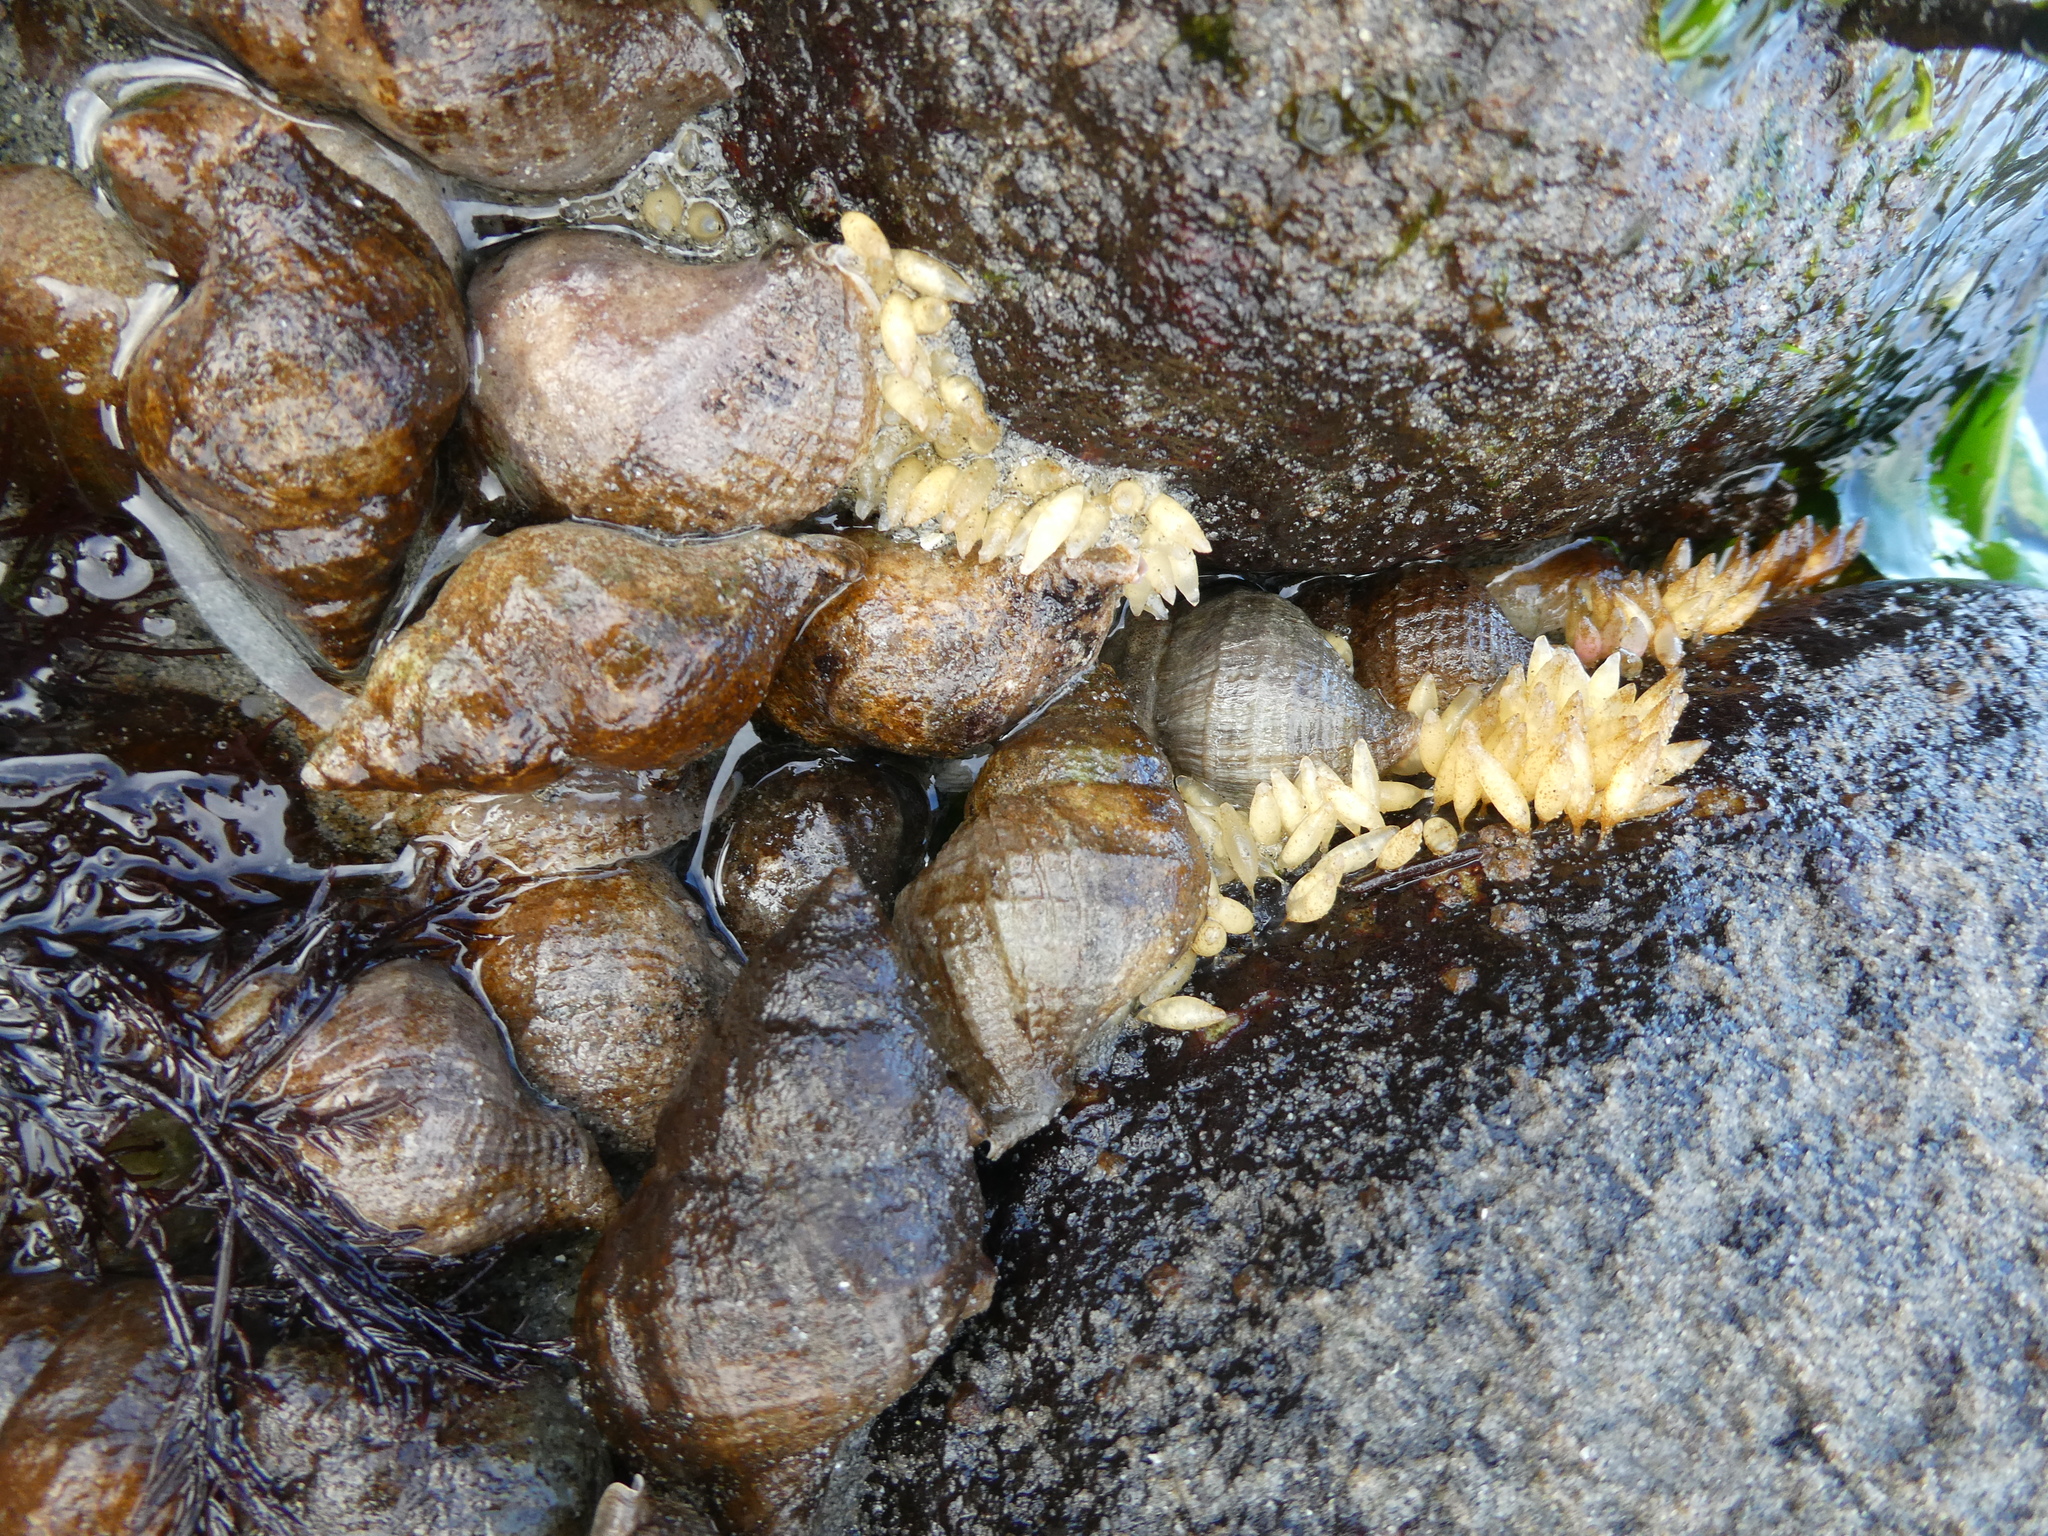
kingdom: Animalia
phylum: Mollusca
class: Gastropoda
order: Neogastropoda
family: Muricidae
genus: Nucella
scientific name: Nucella lamellosa
